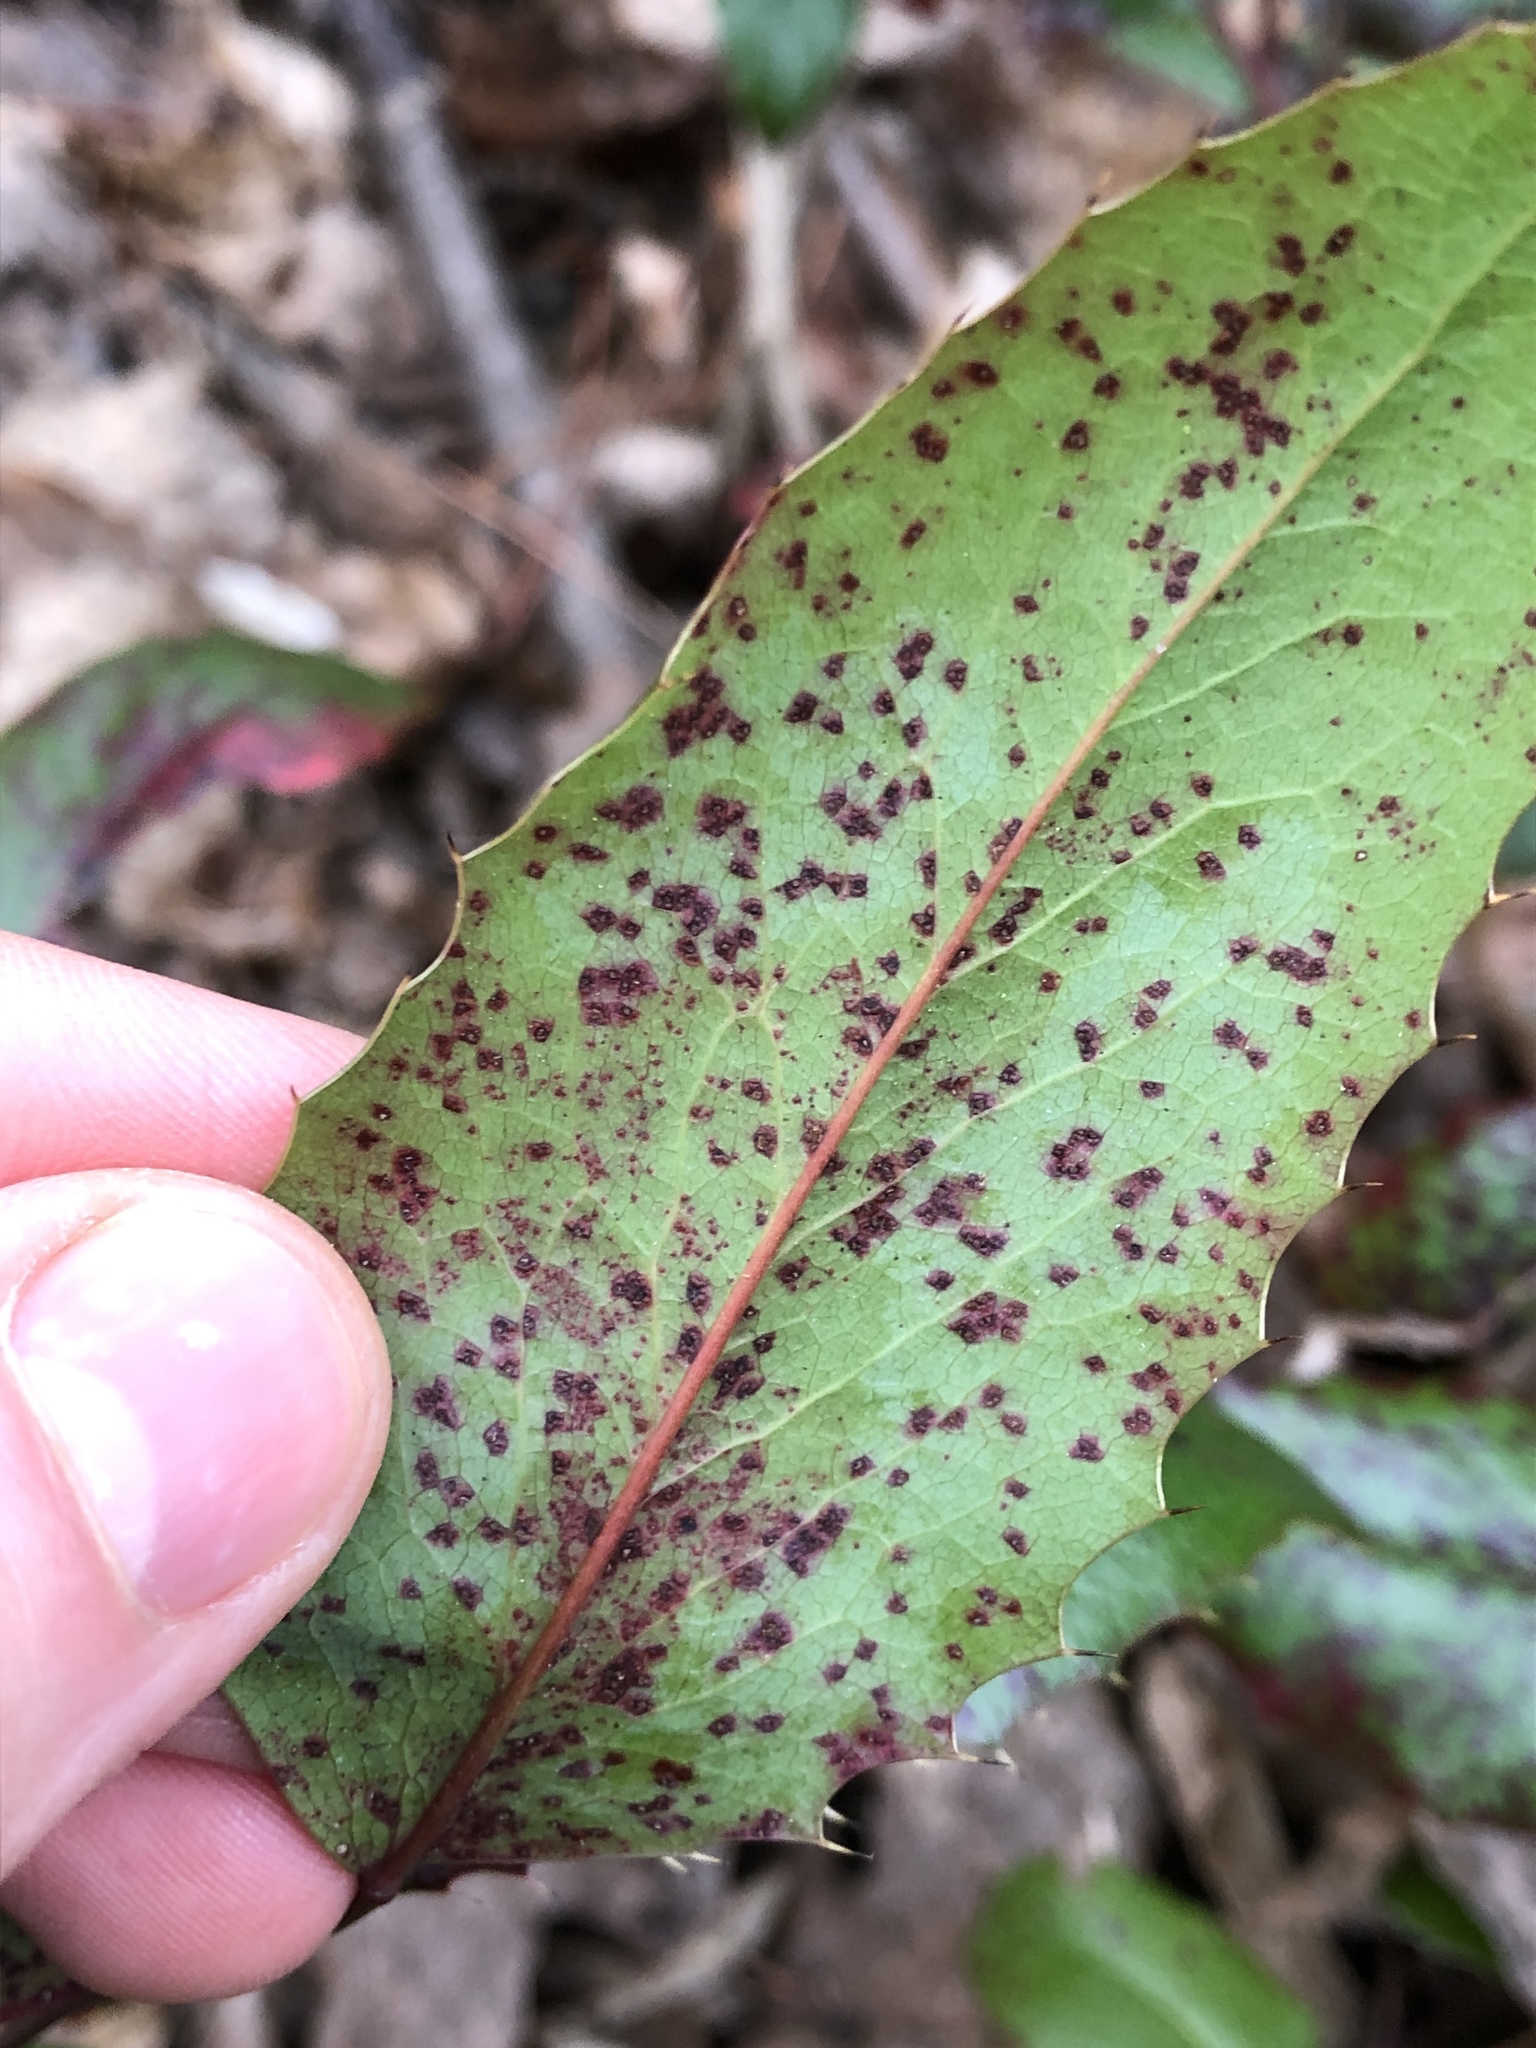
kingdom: Fungi
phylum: Basidiomycota
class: Pucciniomycetes
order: Pucciniales
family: Pucciniaceae
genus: Cumminsiella
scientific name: Cumminsiella mirabilissima
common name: Mahonia rust
